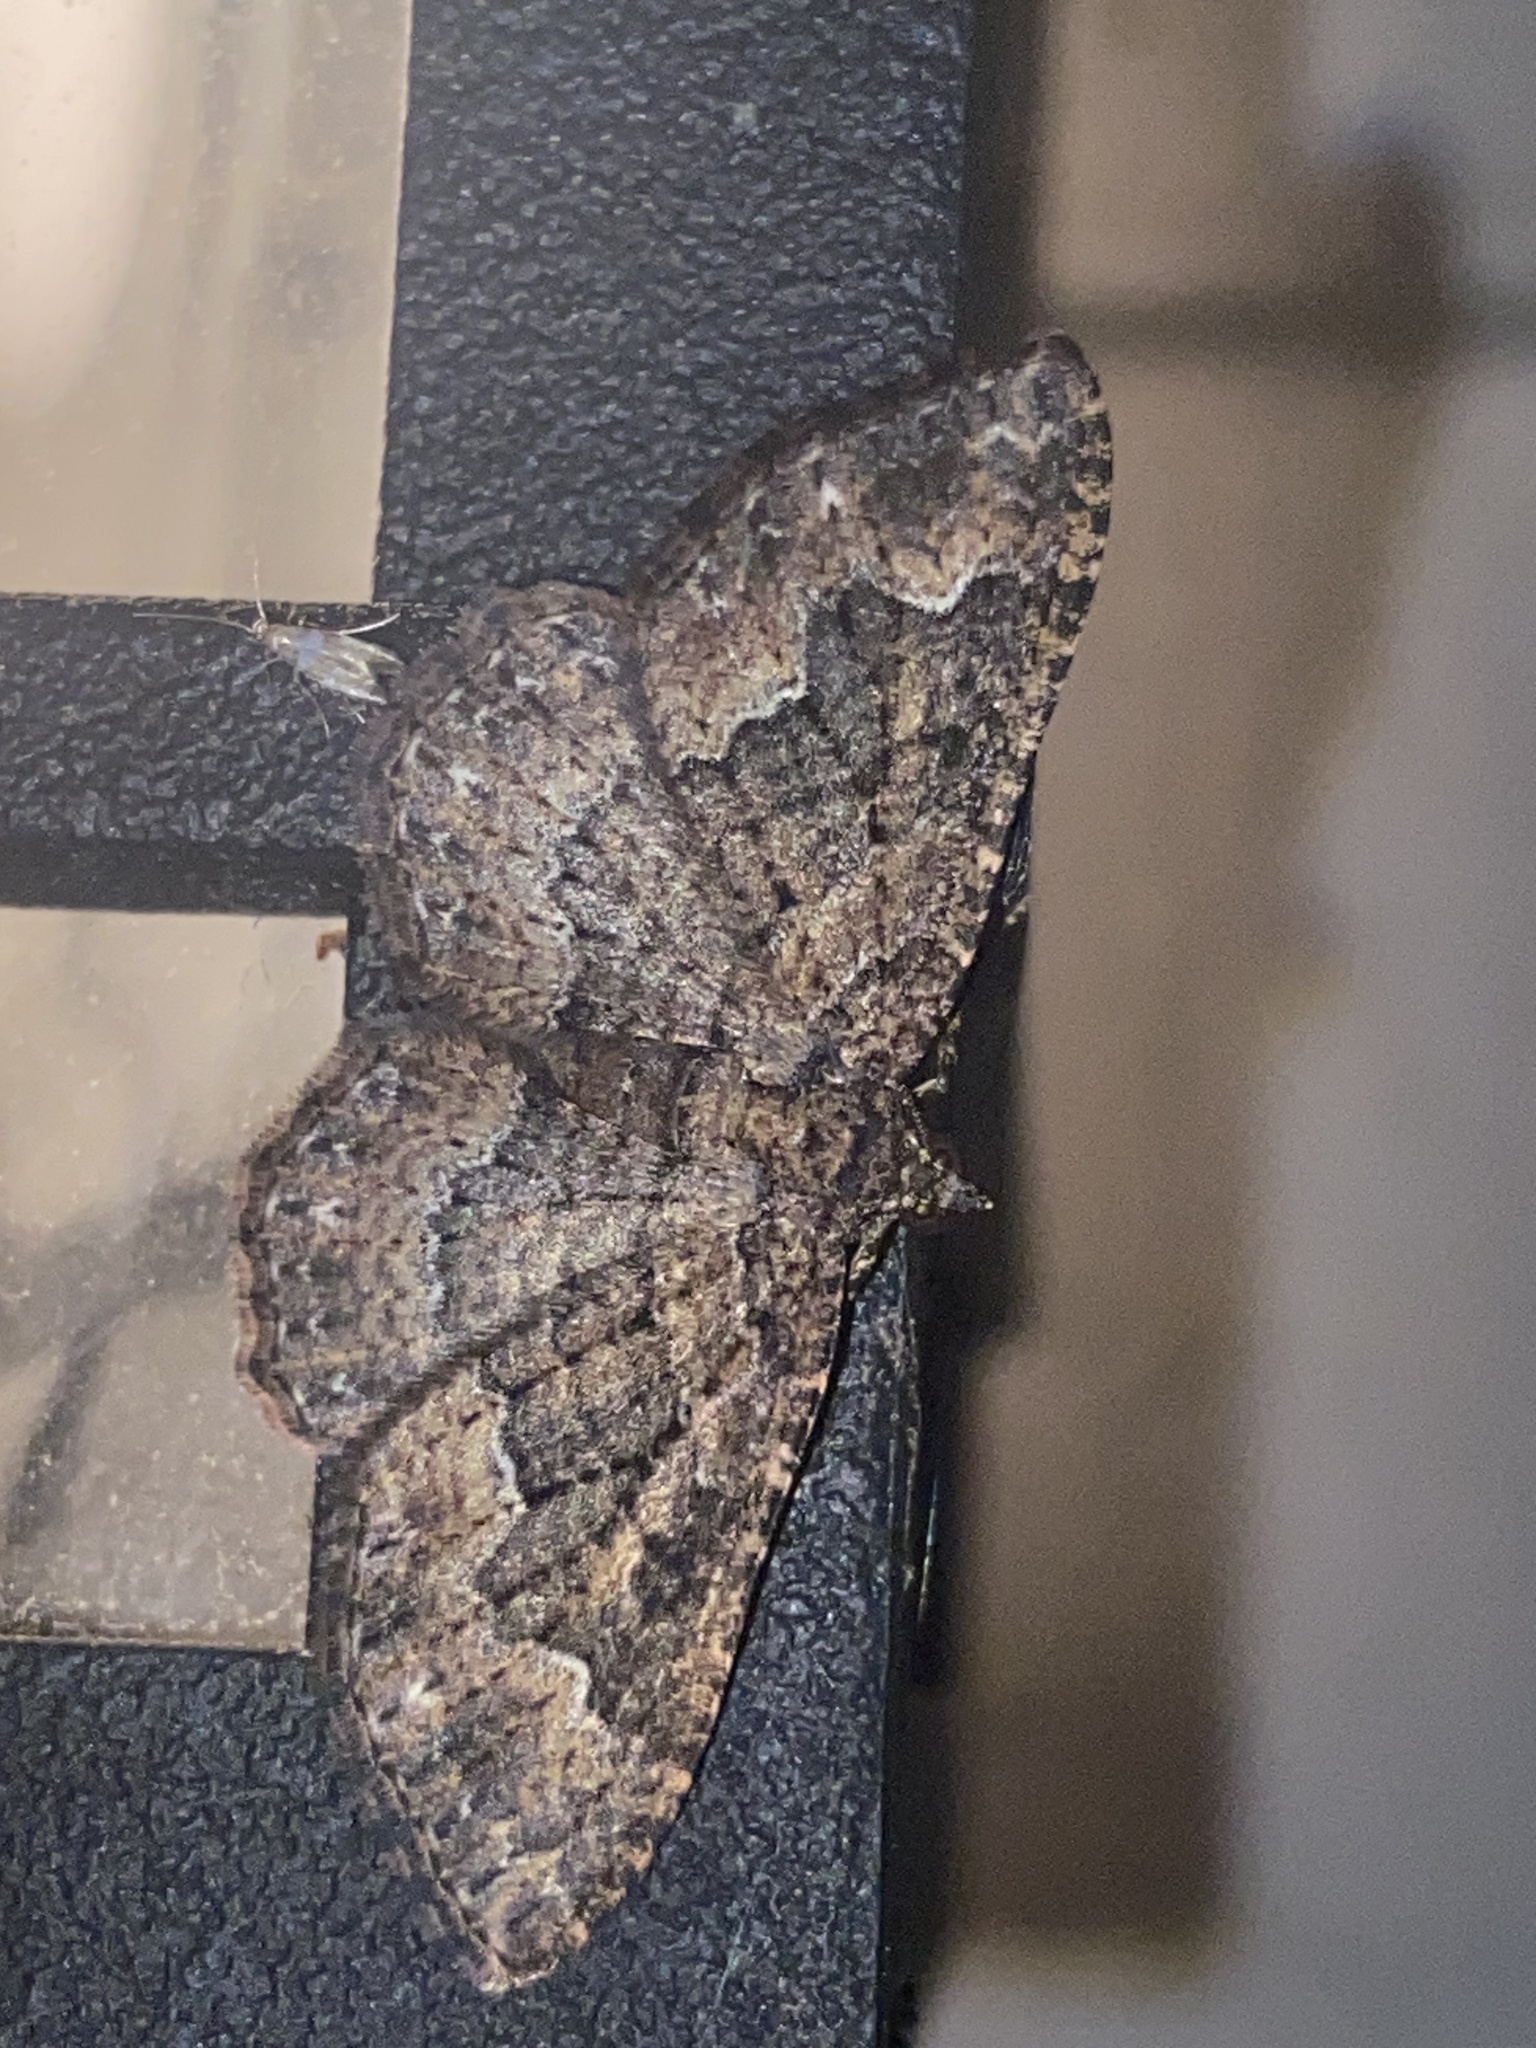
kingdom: Animalia
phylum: Arthropoda
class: Insecta
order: Lepidoptera
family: Geometridae
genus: Disclisioprocta
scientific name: Disclisioprocta stellata
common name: Somber carpet
